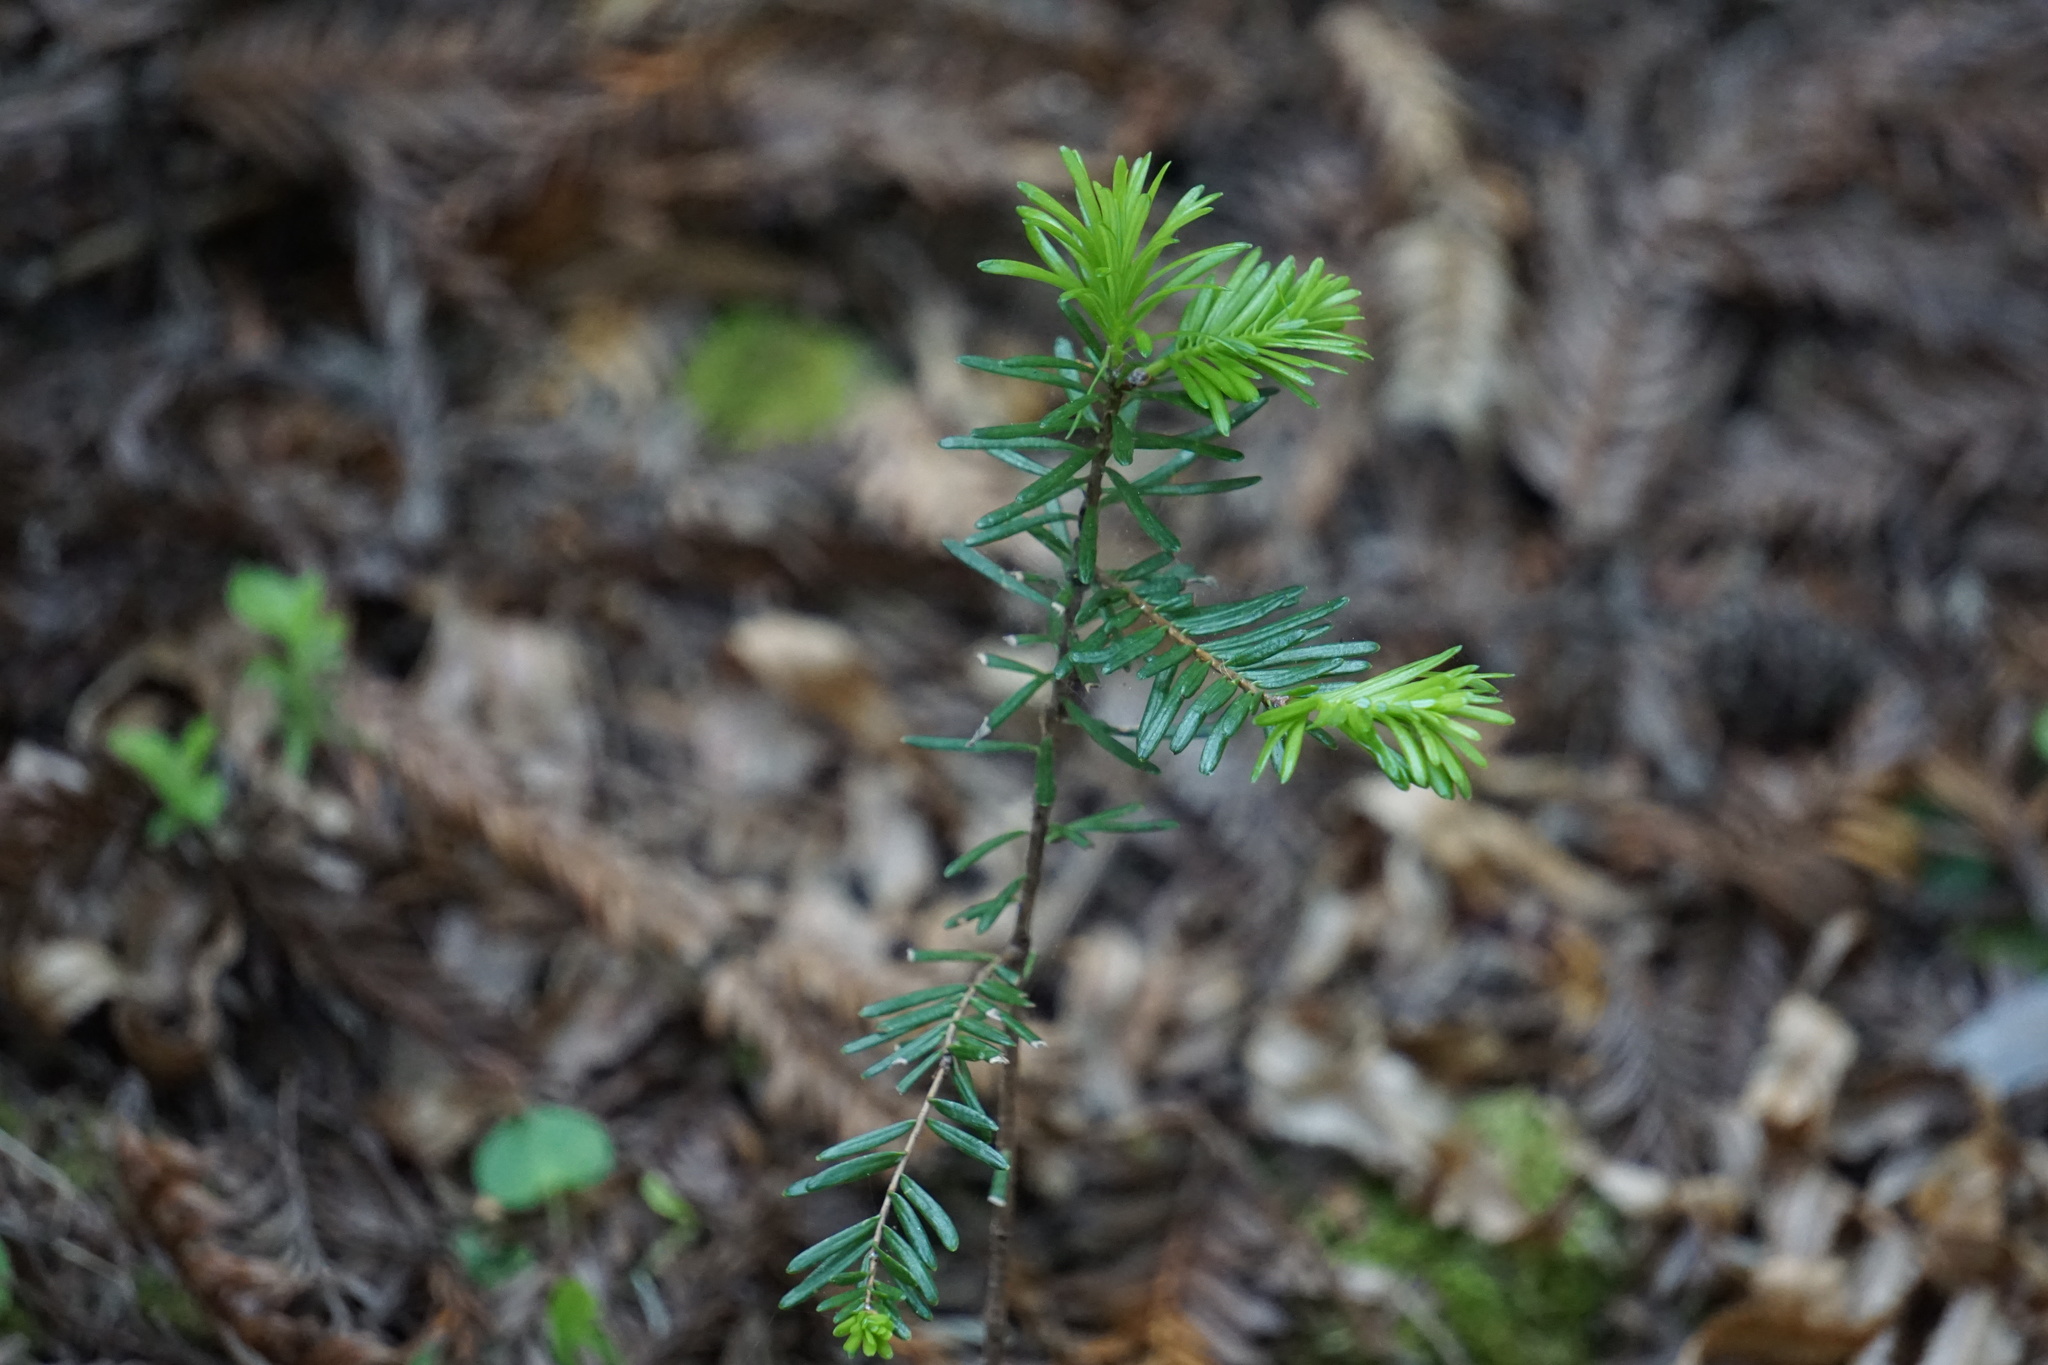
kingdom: Plantae
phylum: Tracheophyta
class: Pinopsida
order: Pinales
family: Cupressaceae
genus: Sequoia
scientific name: Sequoia sempervirens
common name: Coast redwood
